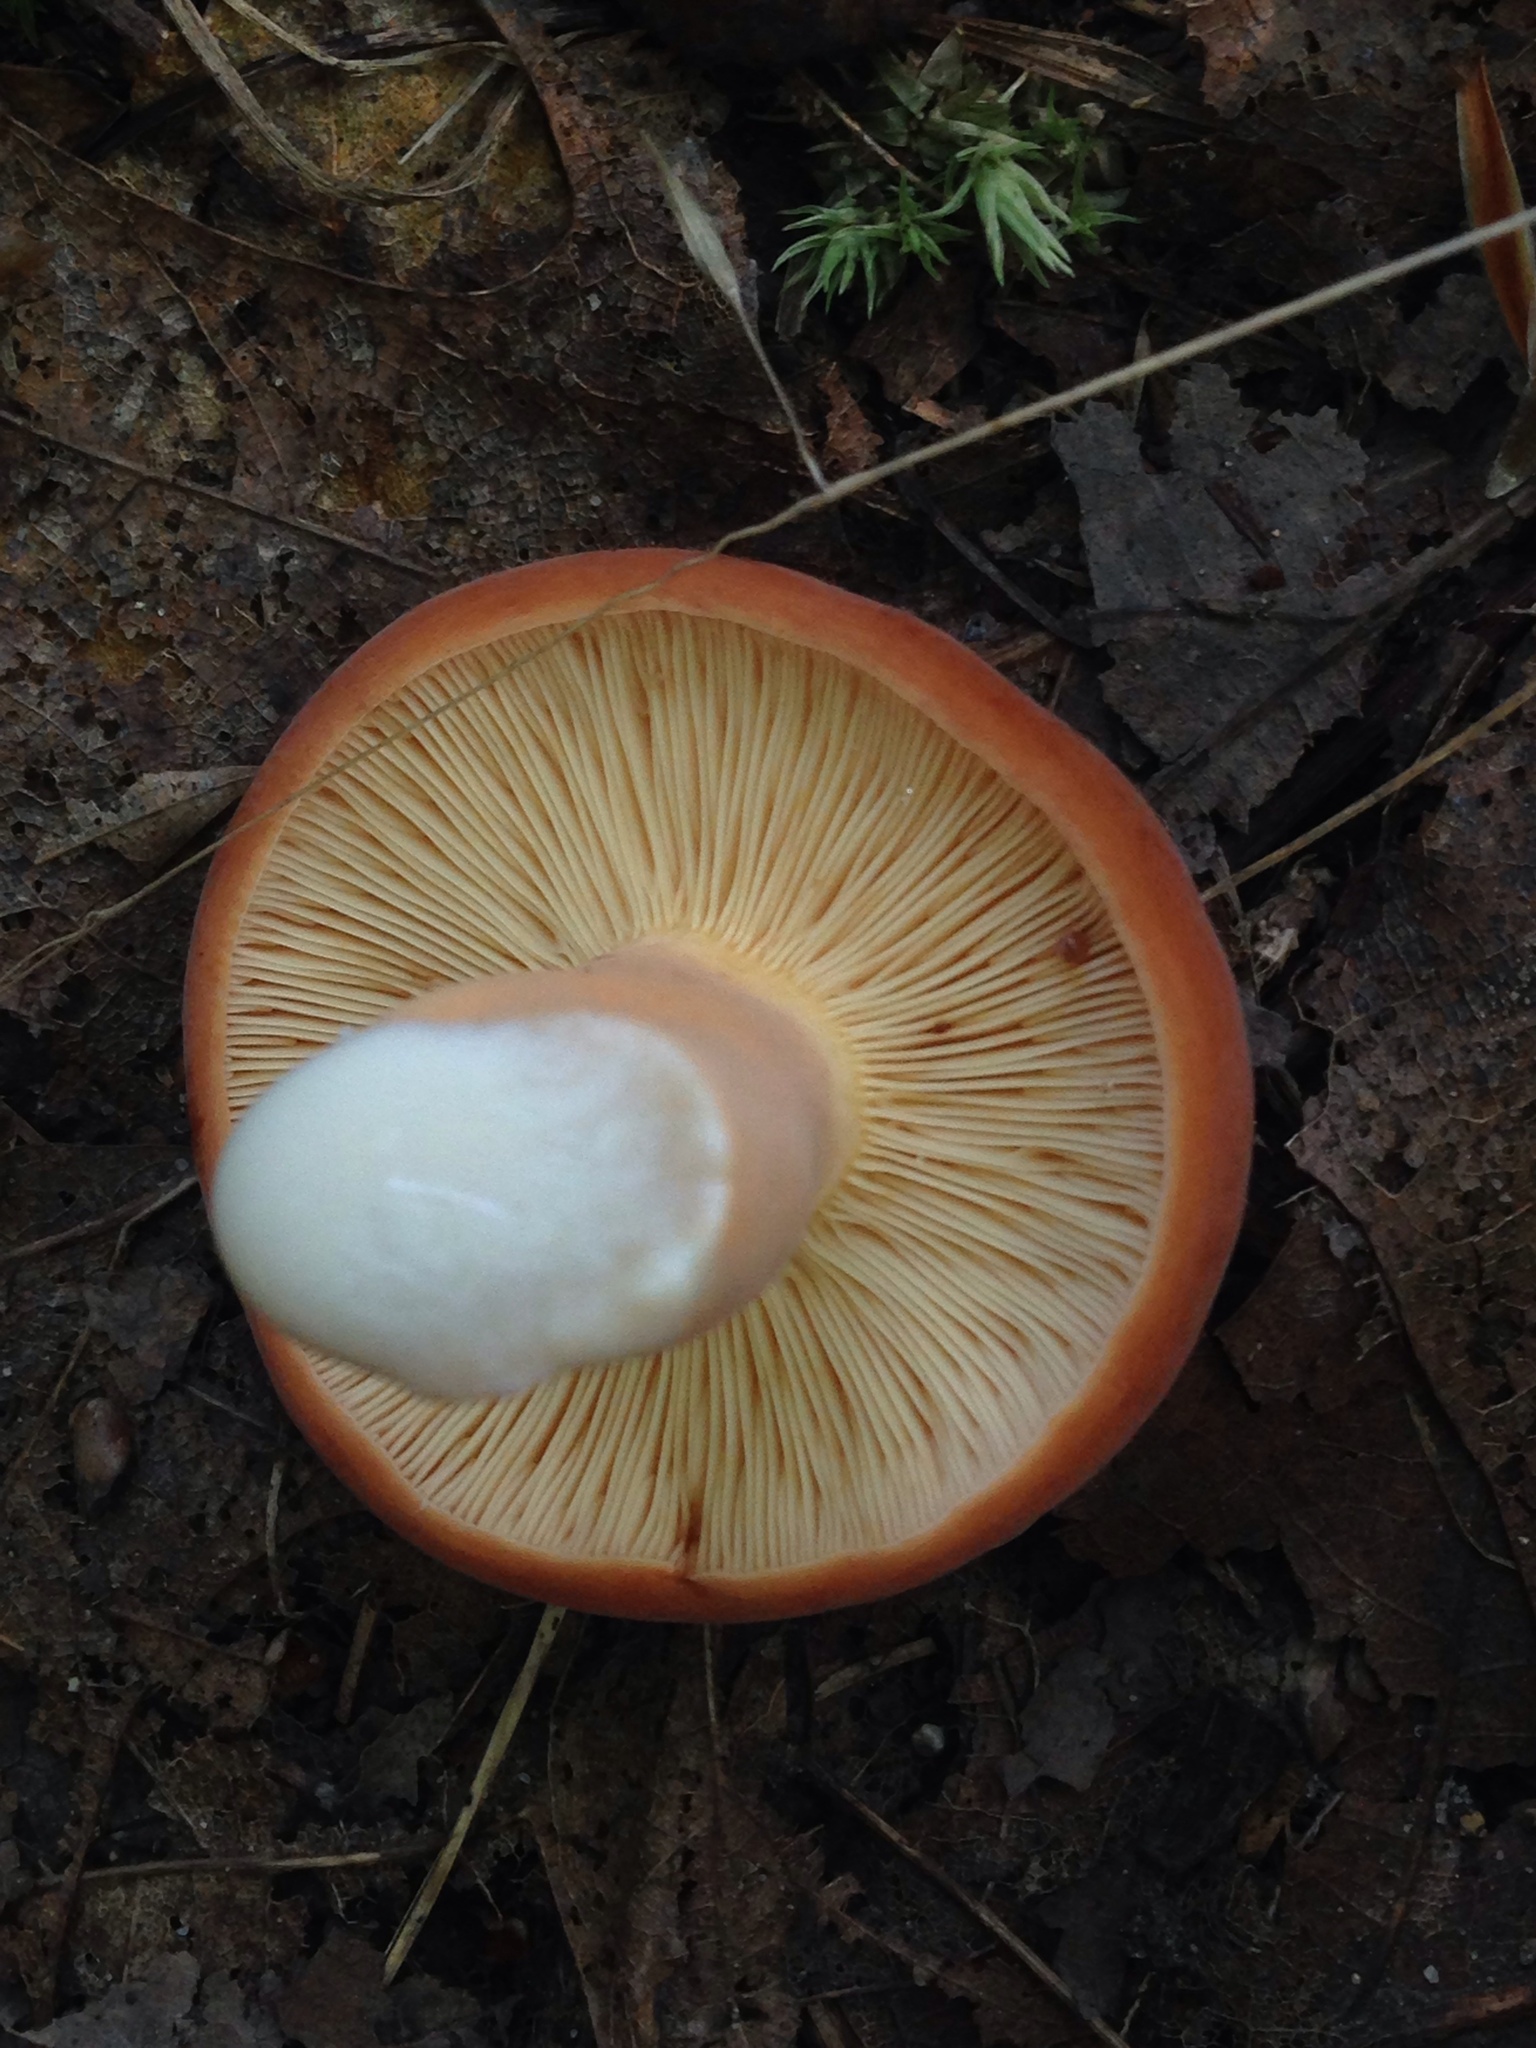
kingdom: Fungi
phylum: Basidiomycota
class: Agaricomycetes
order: Russulales
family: Russulaceae
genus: Lactifluus
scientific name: Lactifluus volemus
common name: Fishy milkcap
